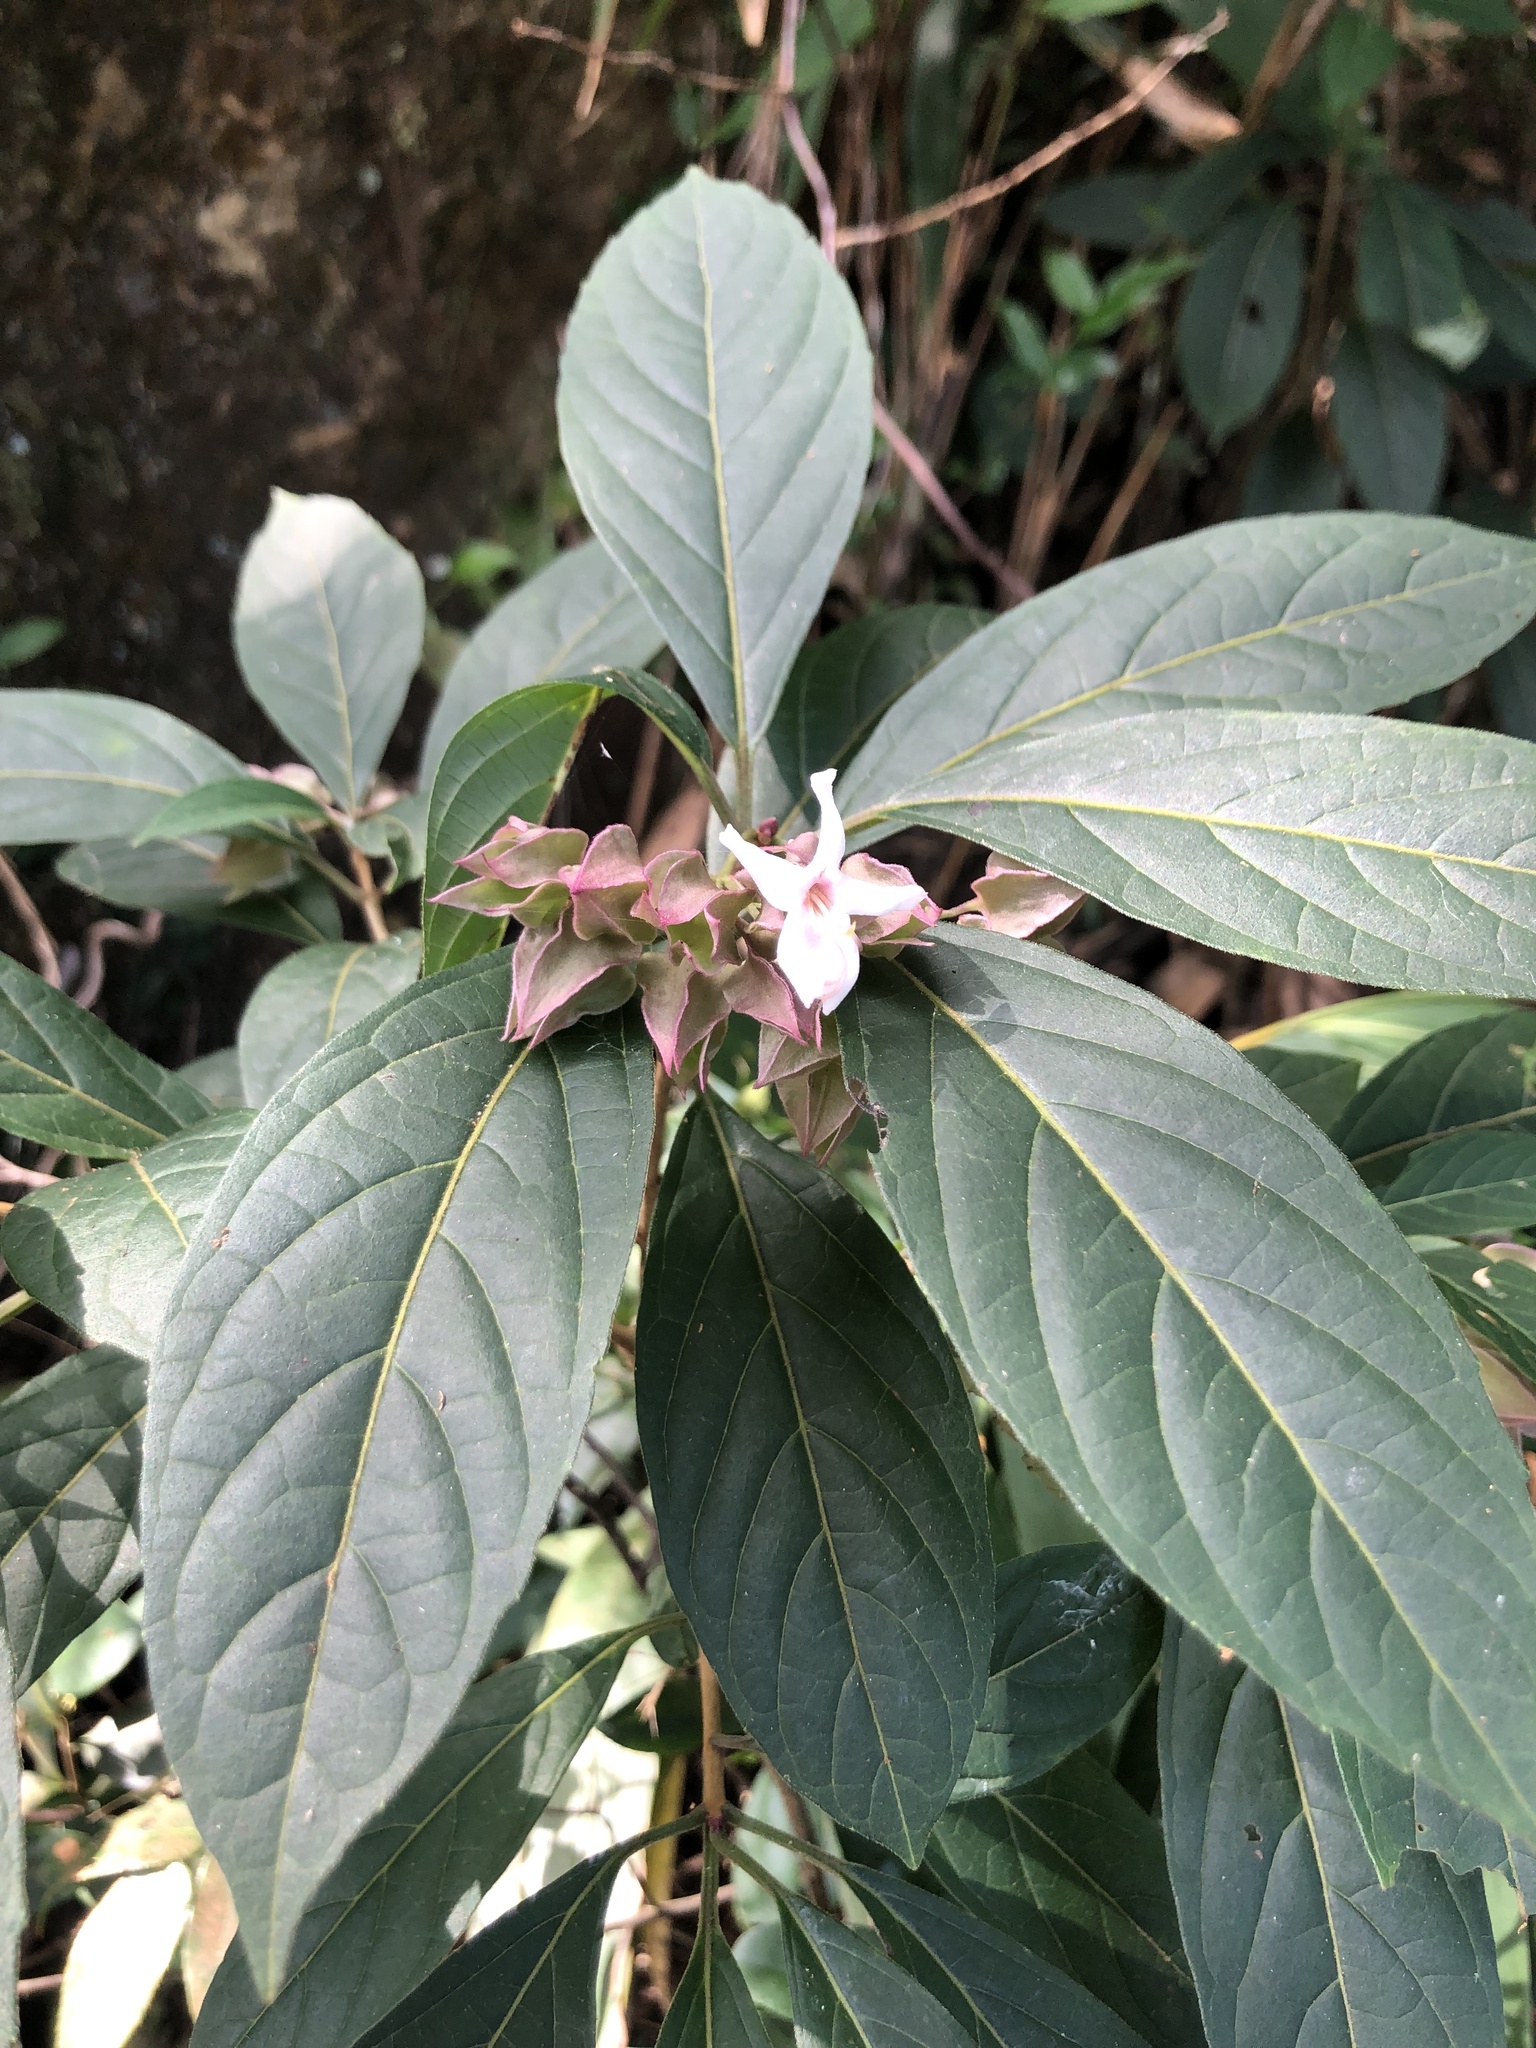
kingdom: Plantae
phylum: Tracheophyta
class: Magnoliopsida
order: Lamiales
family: Lamiaceae
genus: Clerodendrum
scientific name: Clerodendrum fortunatum
